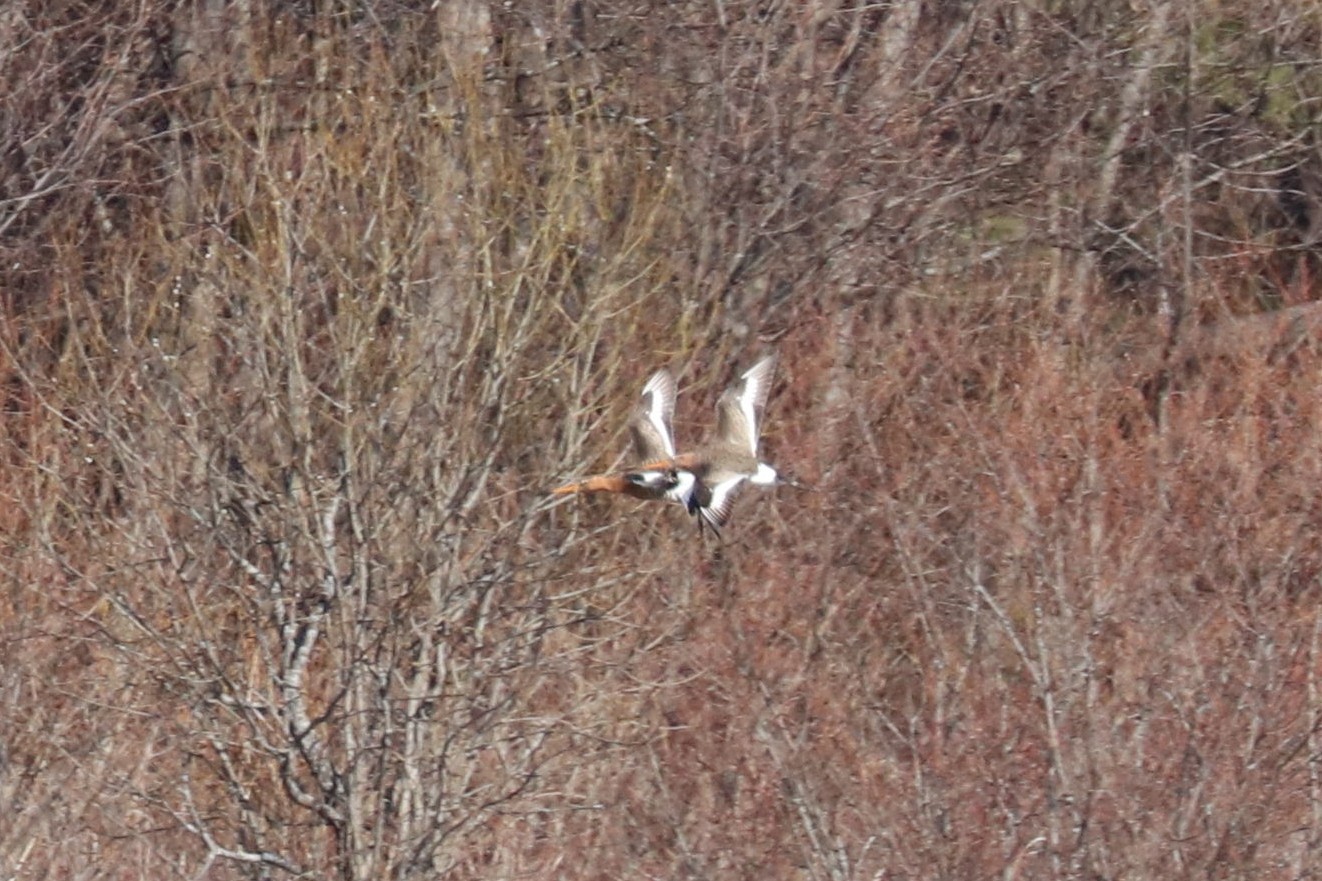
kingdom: Animalia
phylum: Chordata
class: Aves
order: Charadriiformes
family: Scolopacidae
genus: Limosa
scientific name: Limosa limosa
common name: Black-tailed godwit
